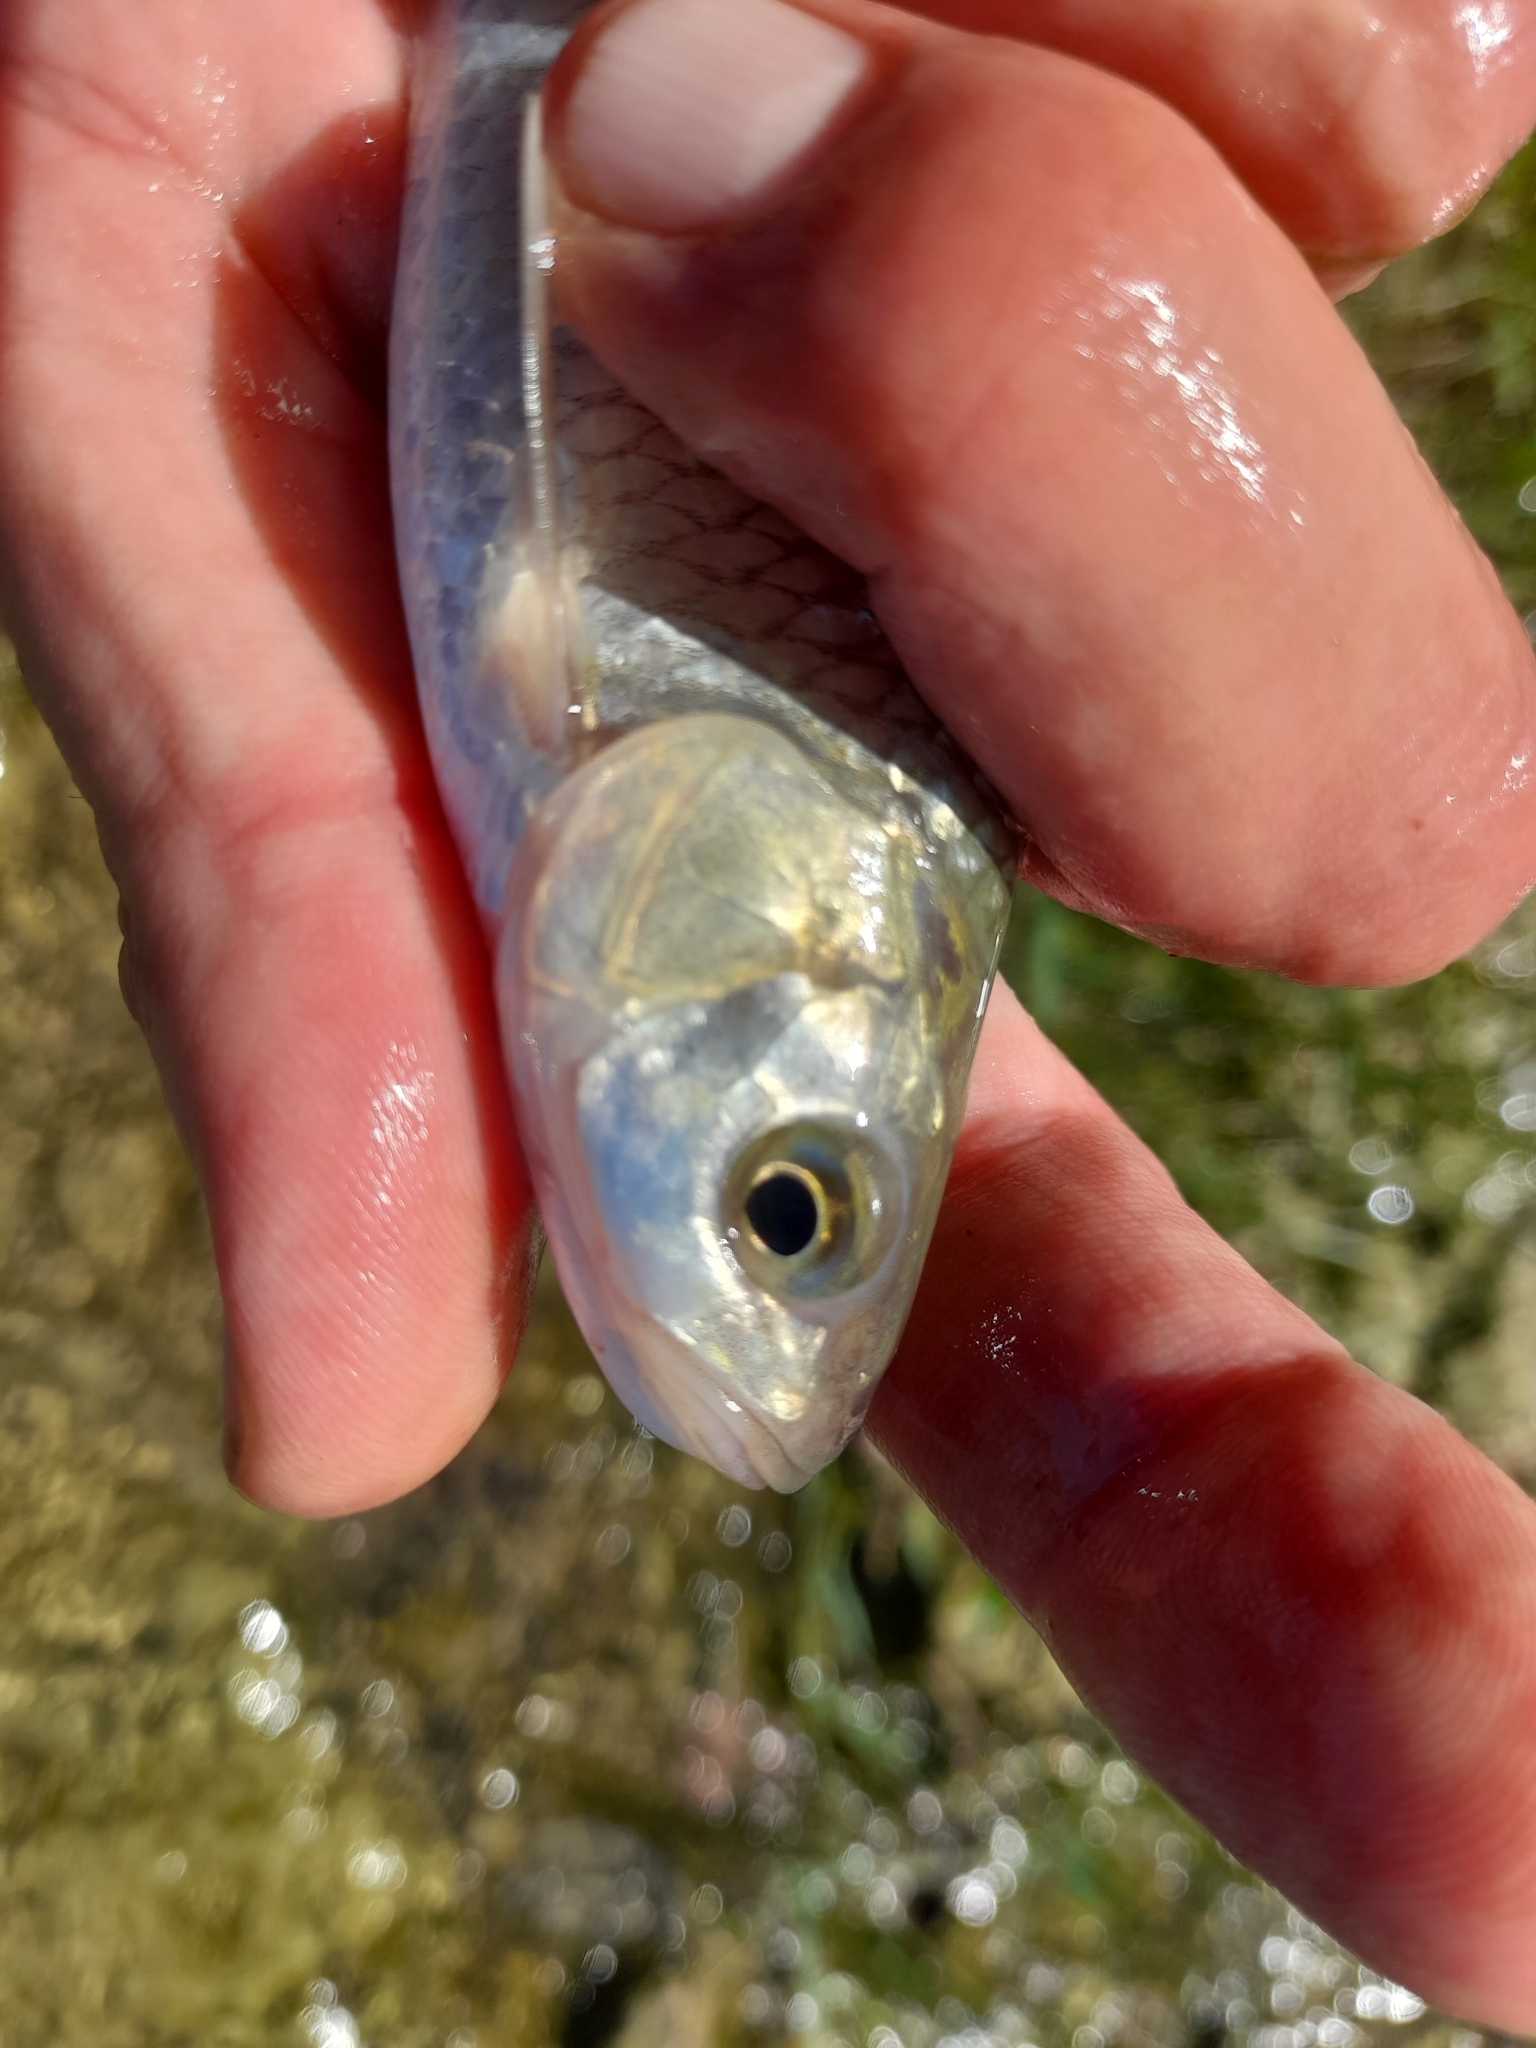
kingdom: Animalia
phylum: Chordata
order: Cypriniformes
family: Cyprinidae
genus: Squalius
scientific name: Squalius lucumonis
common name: Toscana stream chub
